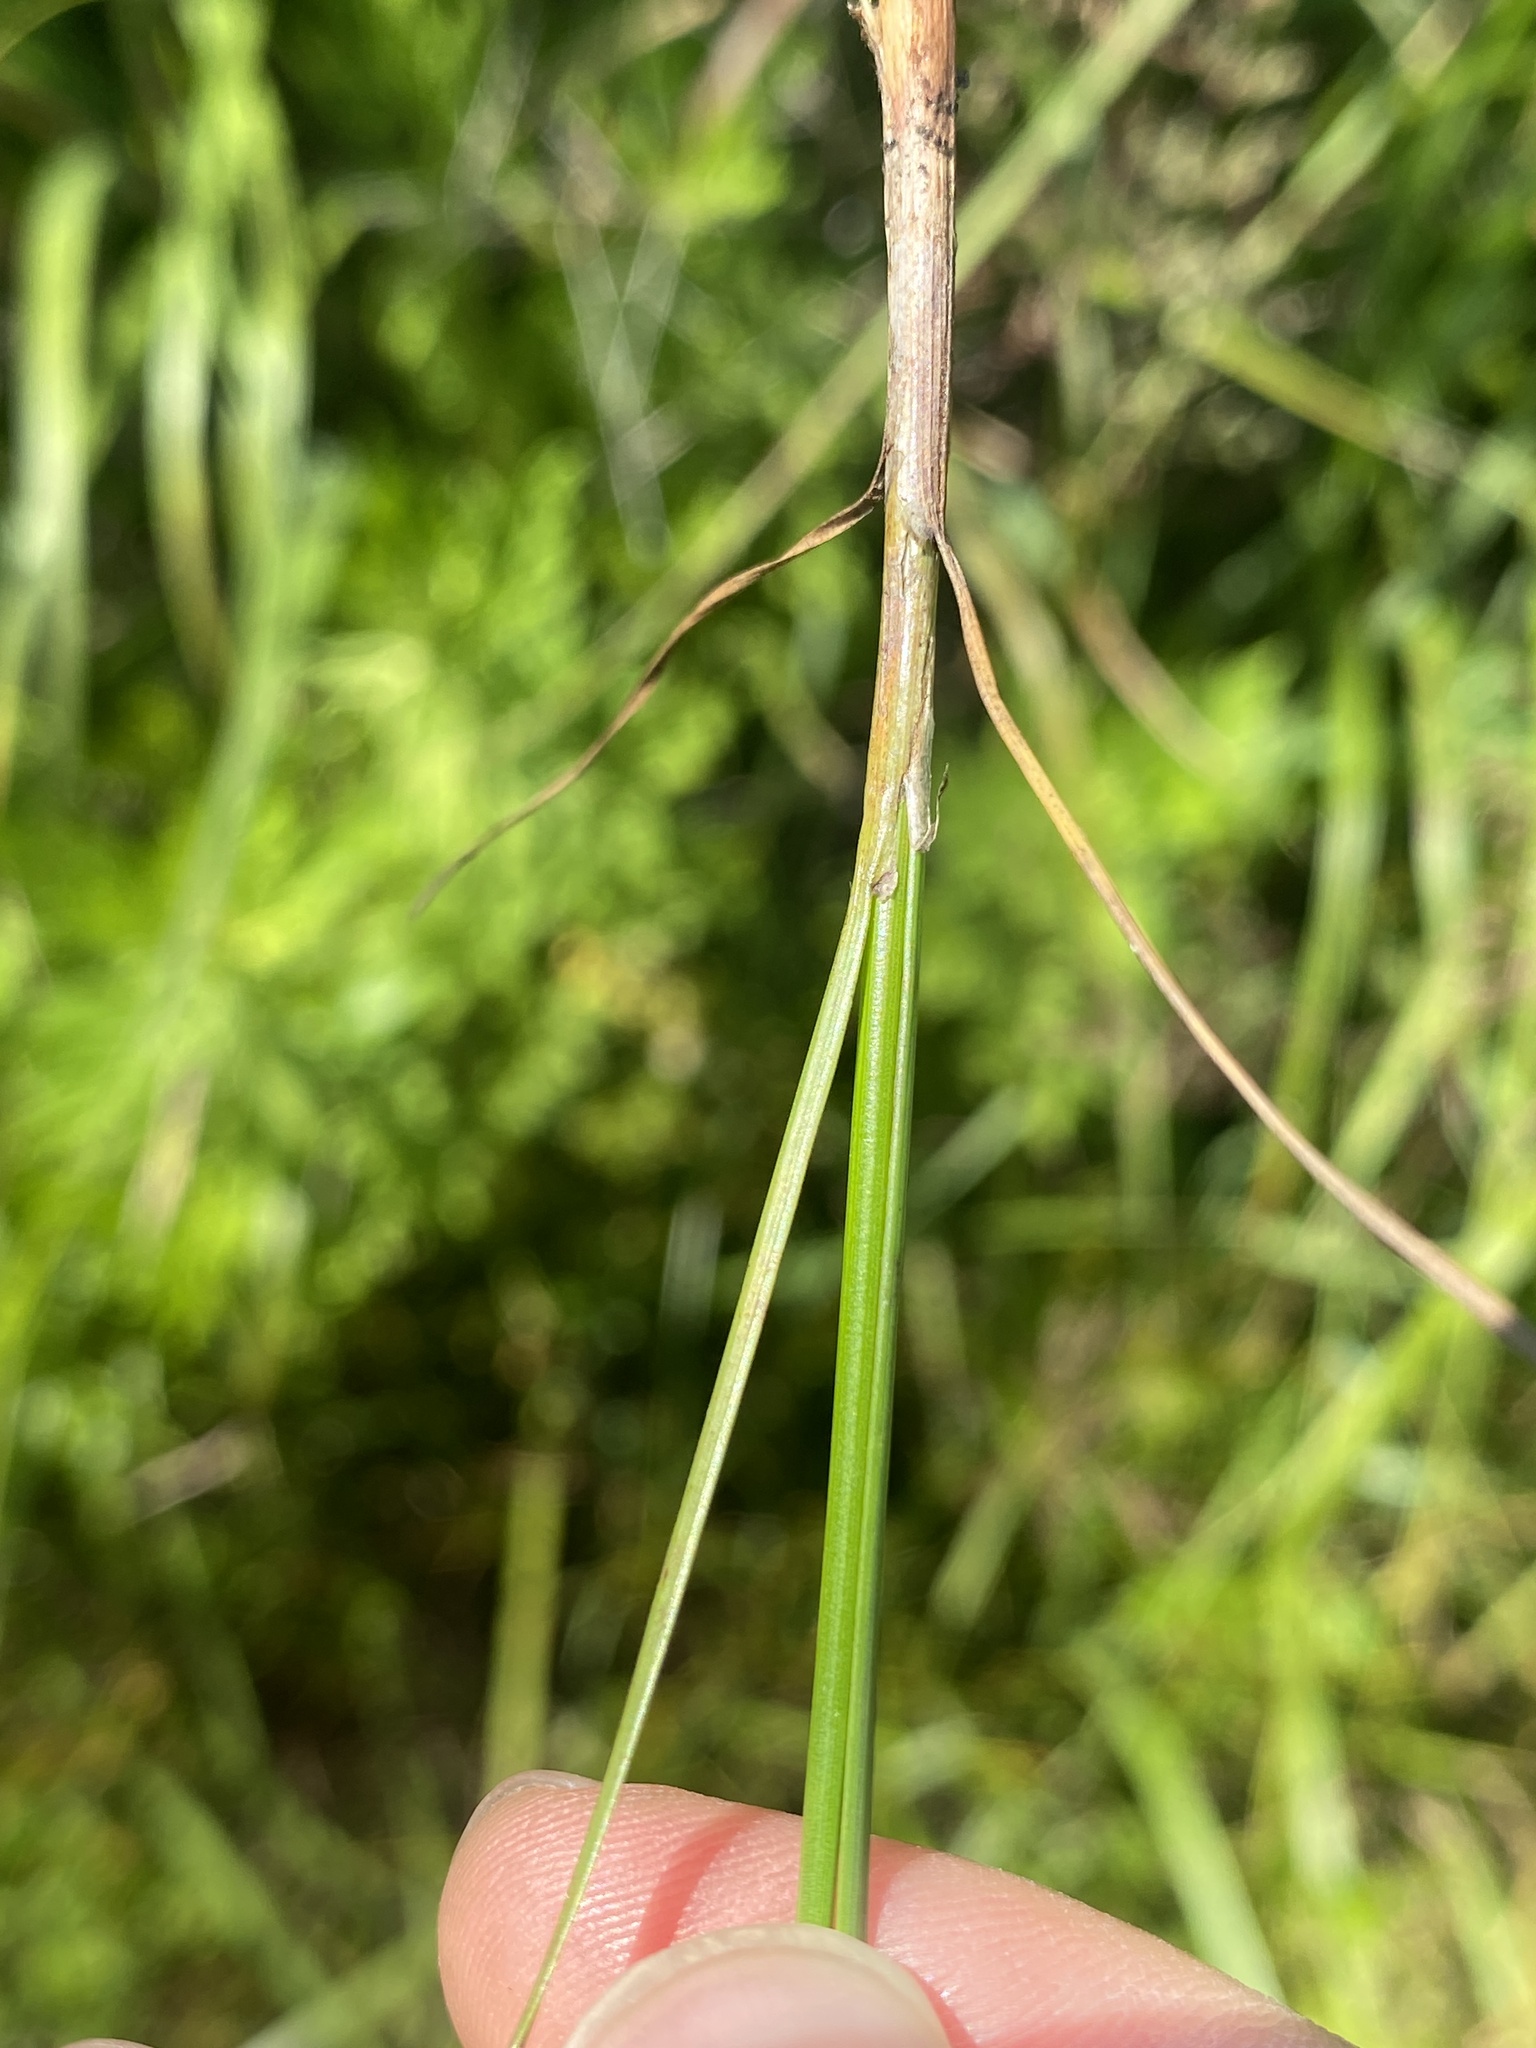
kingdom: Plantae
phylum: Tracheophyta
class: Liliopsida
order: Poales
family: Juncaceae
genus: Juncus
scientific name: Juncus dichotomus
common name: Forked rush
